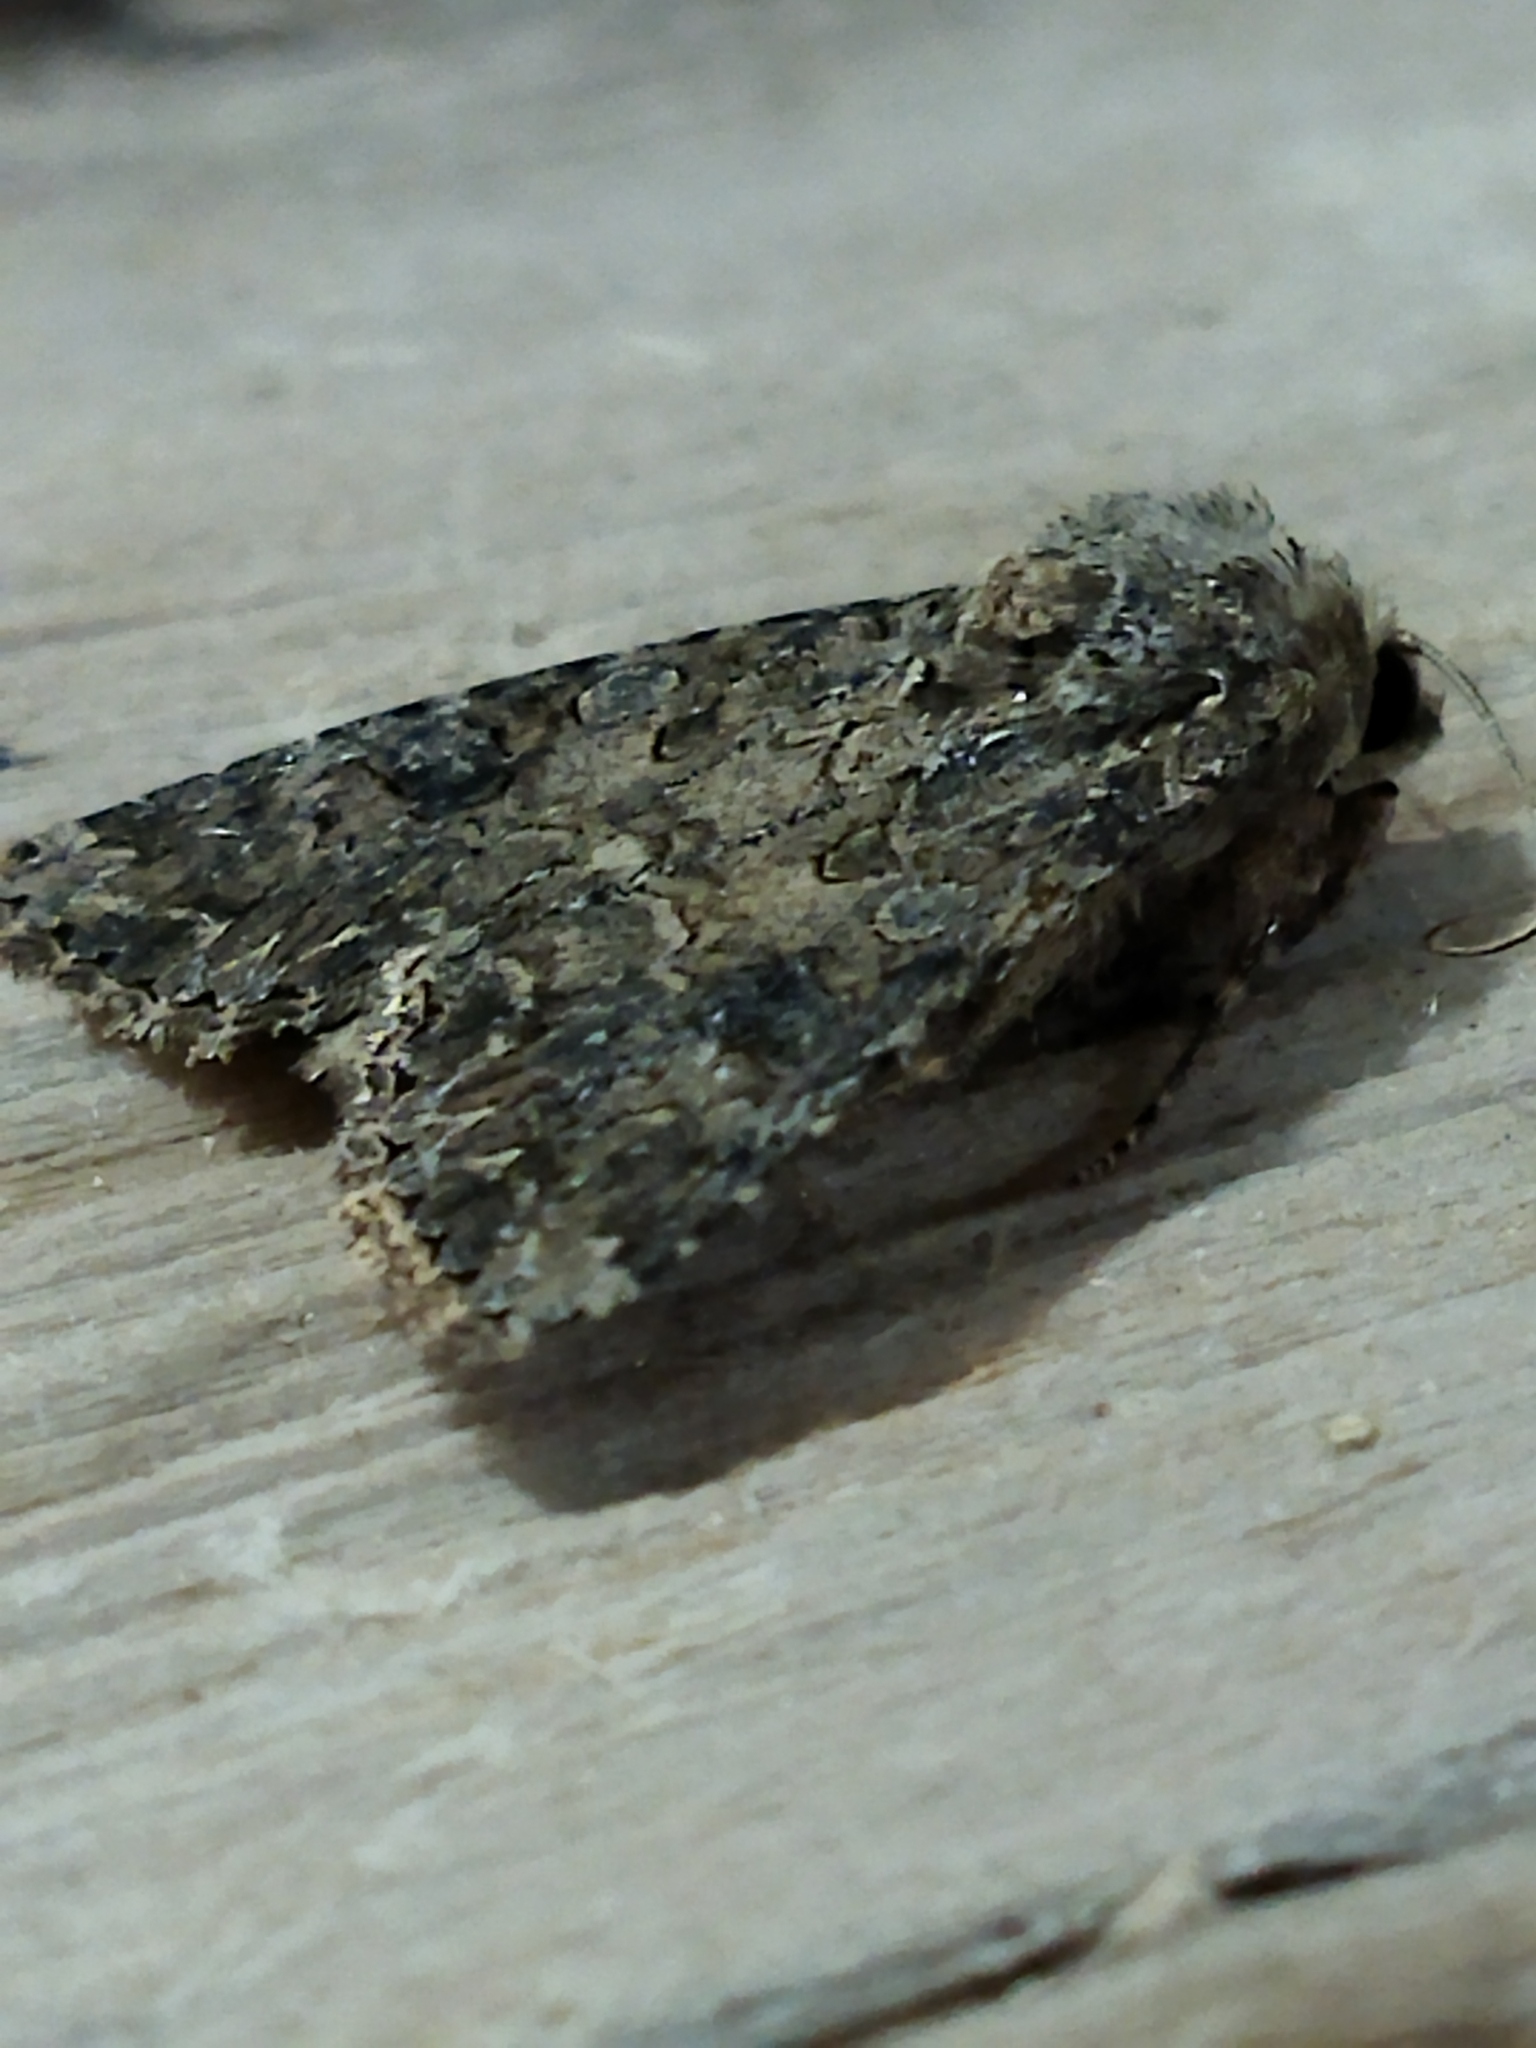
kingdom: Animalia
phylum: Arthropoda
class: Insecta
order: Lepidoptera
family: Noctuidae
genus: Anarta
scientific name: Anarta trifolii
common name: Clover cutworm moth
